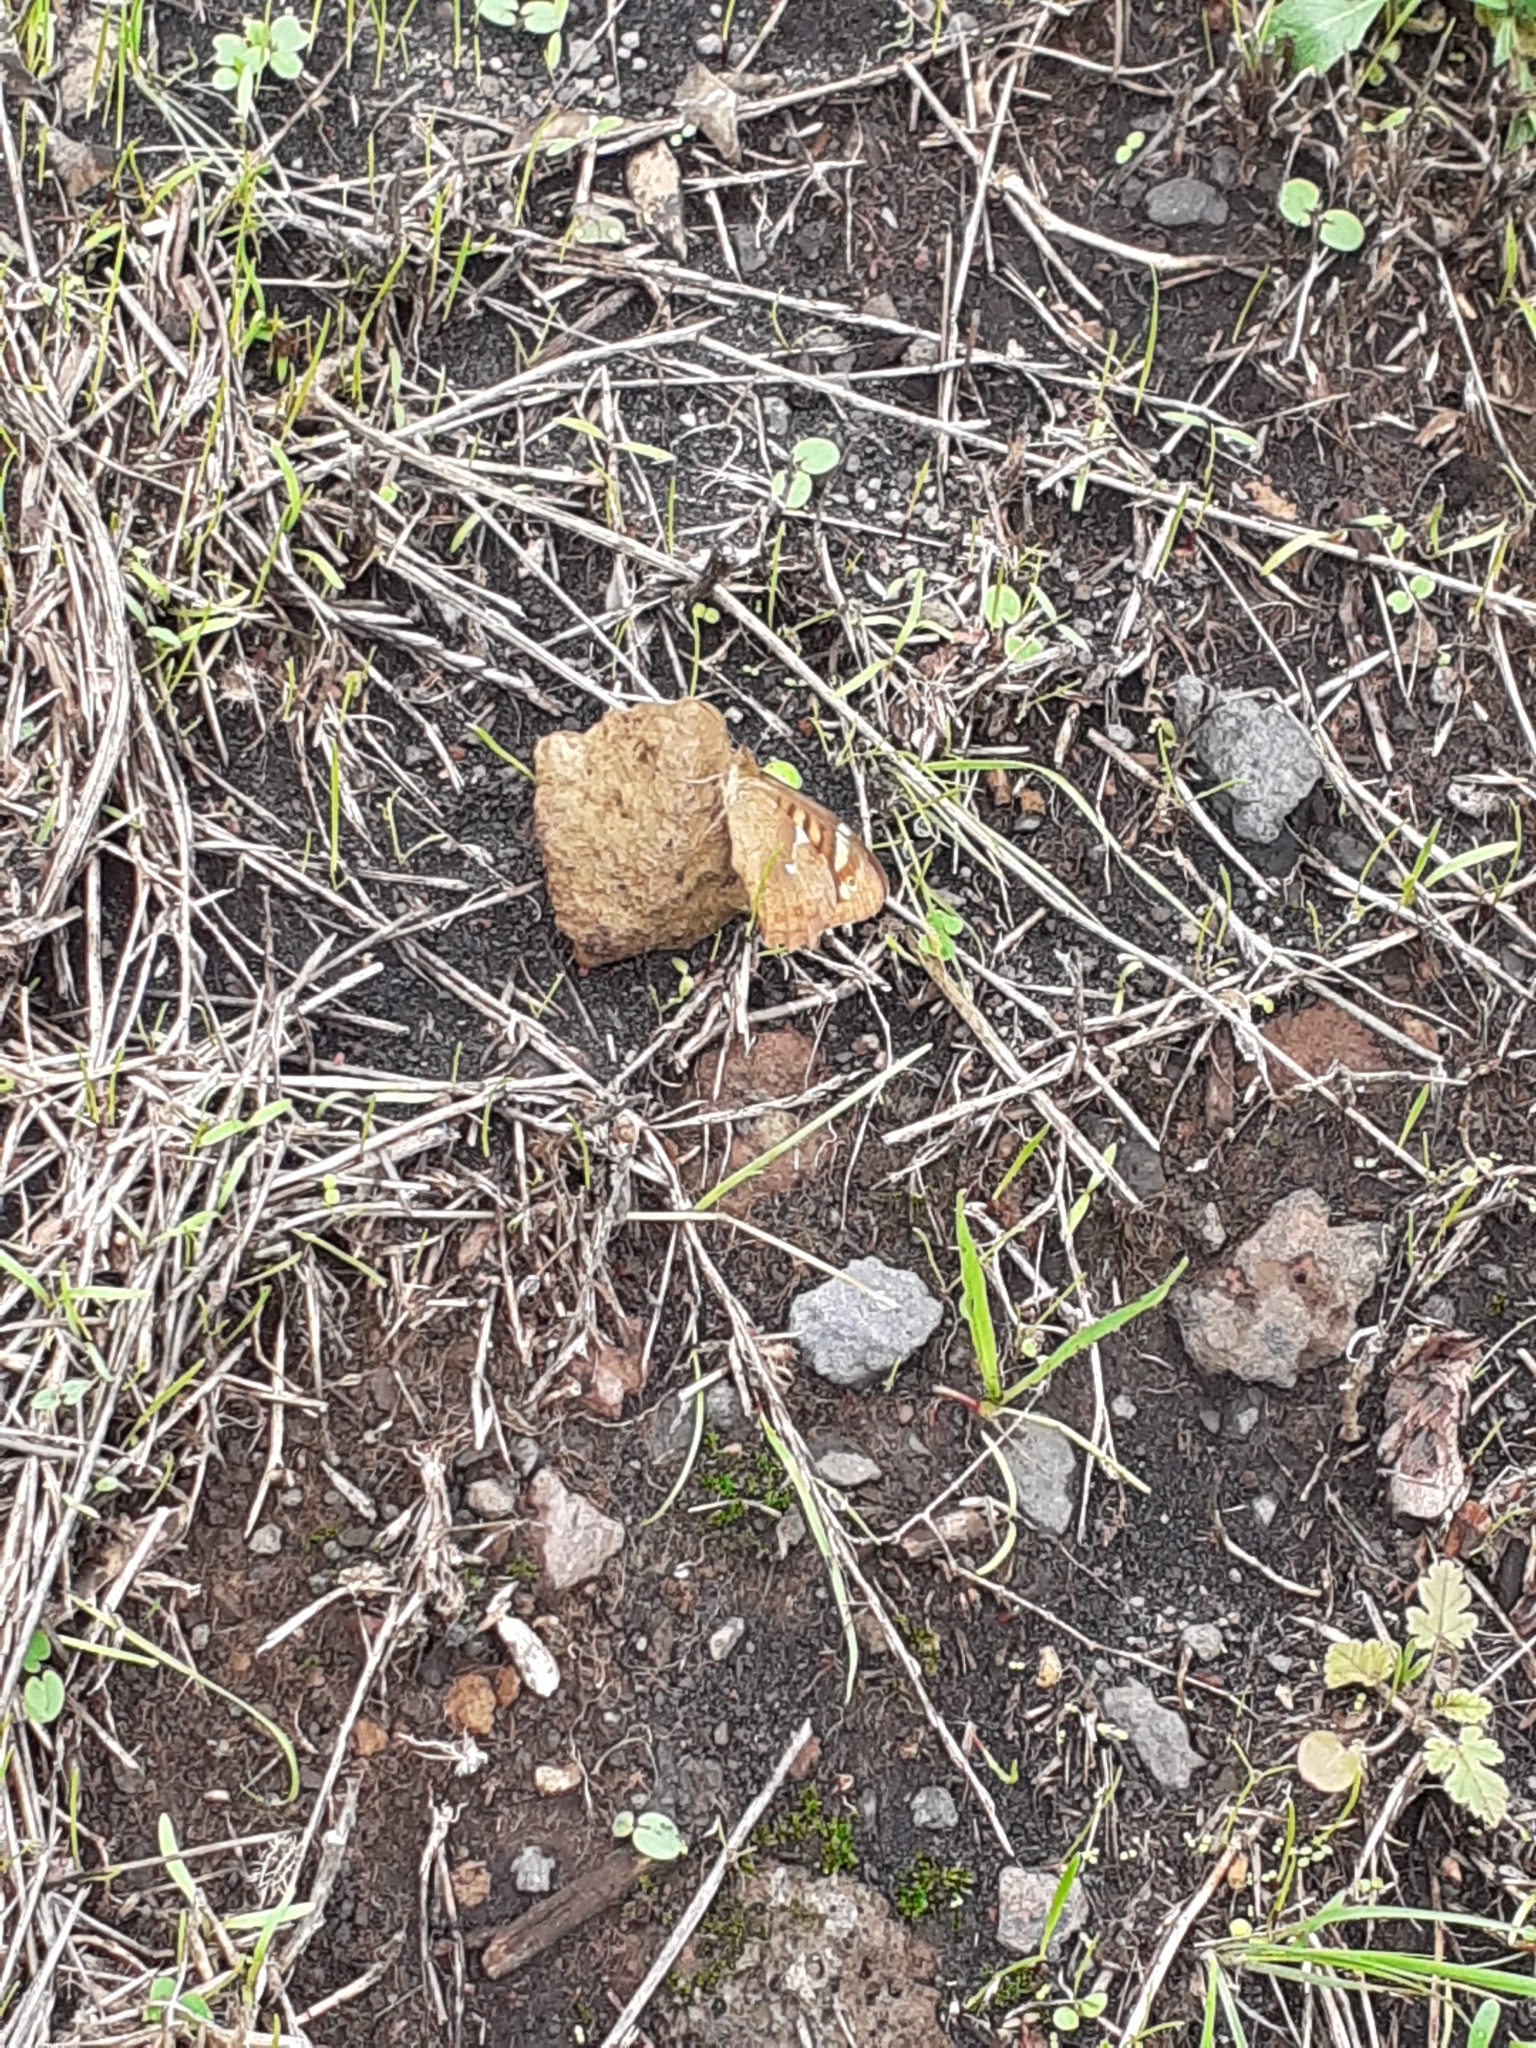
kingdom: Animalia
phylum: Arthropoda
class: Insecta
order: Lepidoptera
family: Nymphalidae
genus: Pararge
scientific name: Pararge aegeria
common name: Speckled wood
